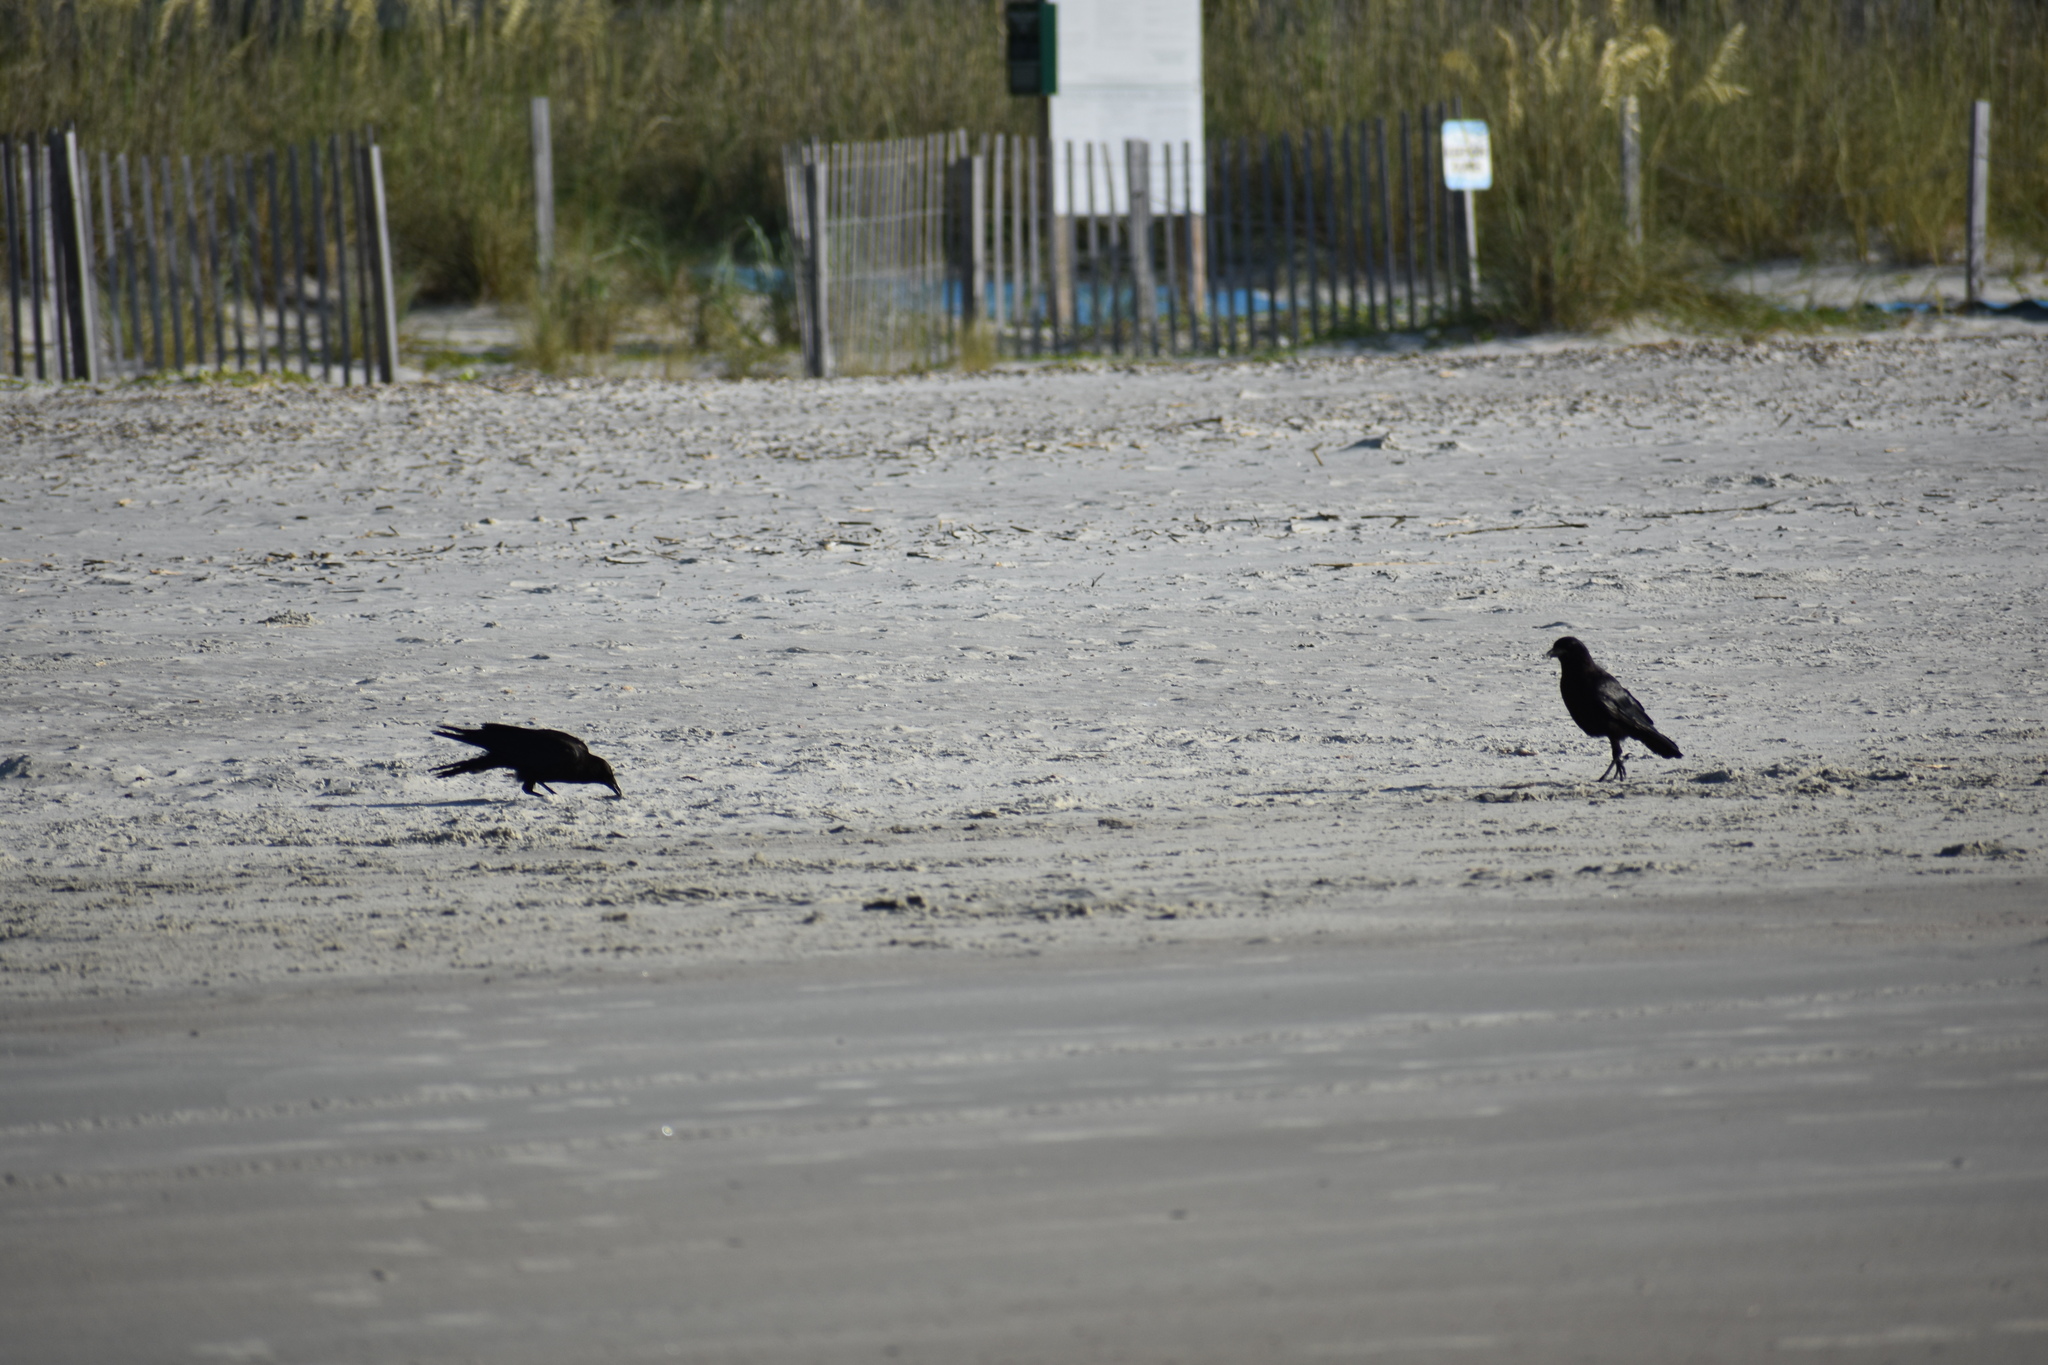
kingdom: Animalia
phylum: Chordata
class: Aves
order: Passeriformes
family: Corvidae
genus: Corvus
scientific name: Corvus
